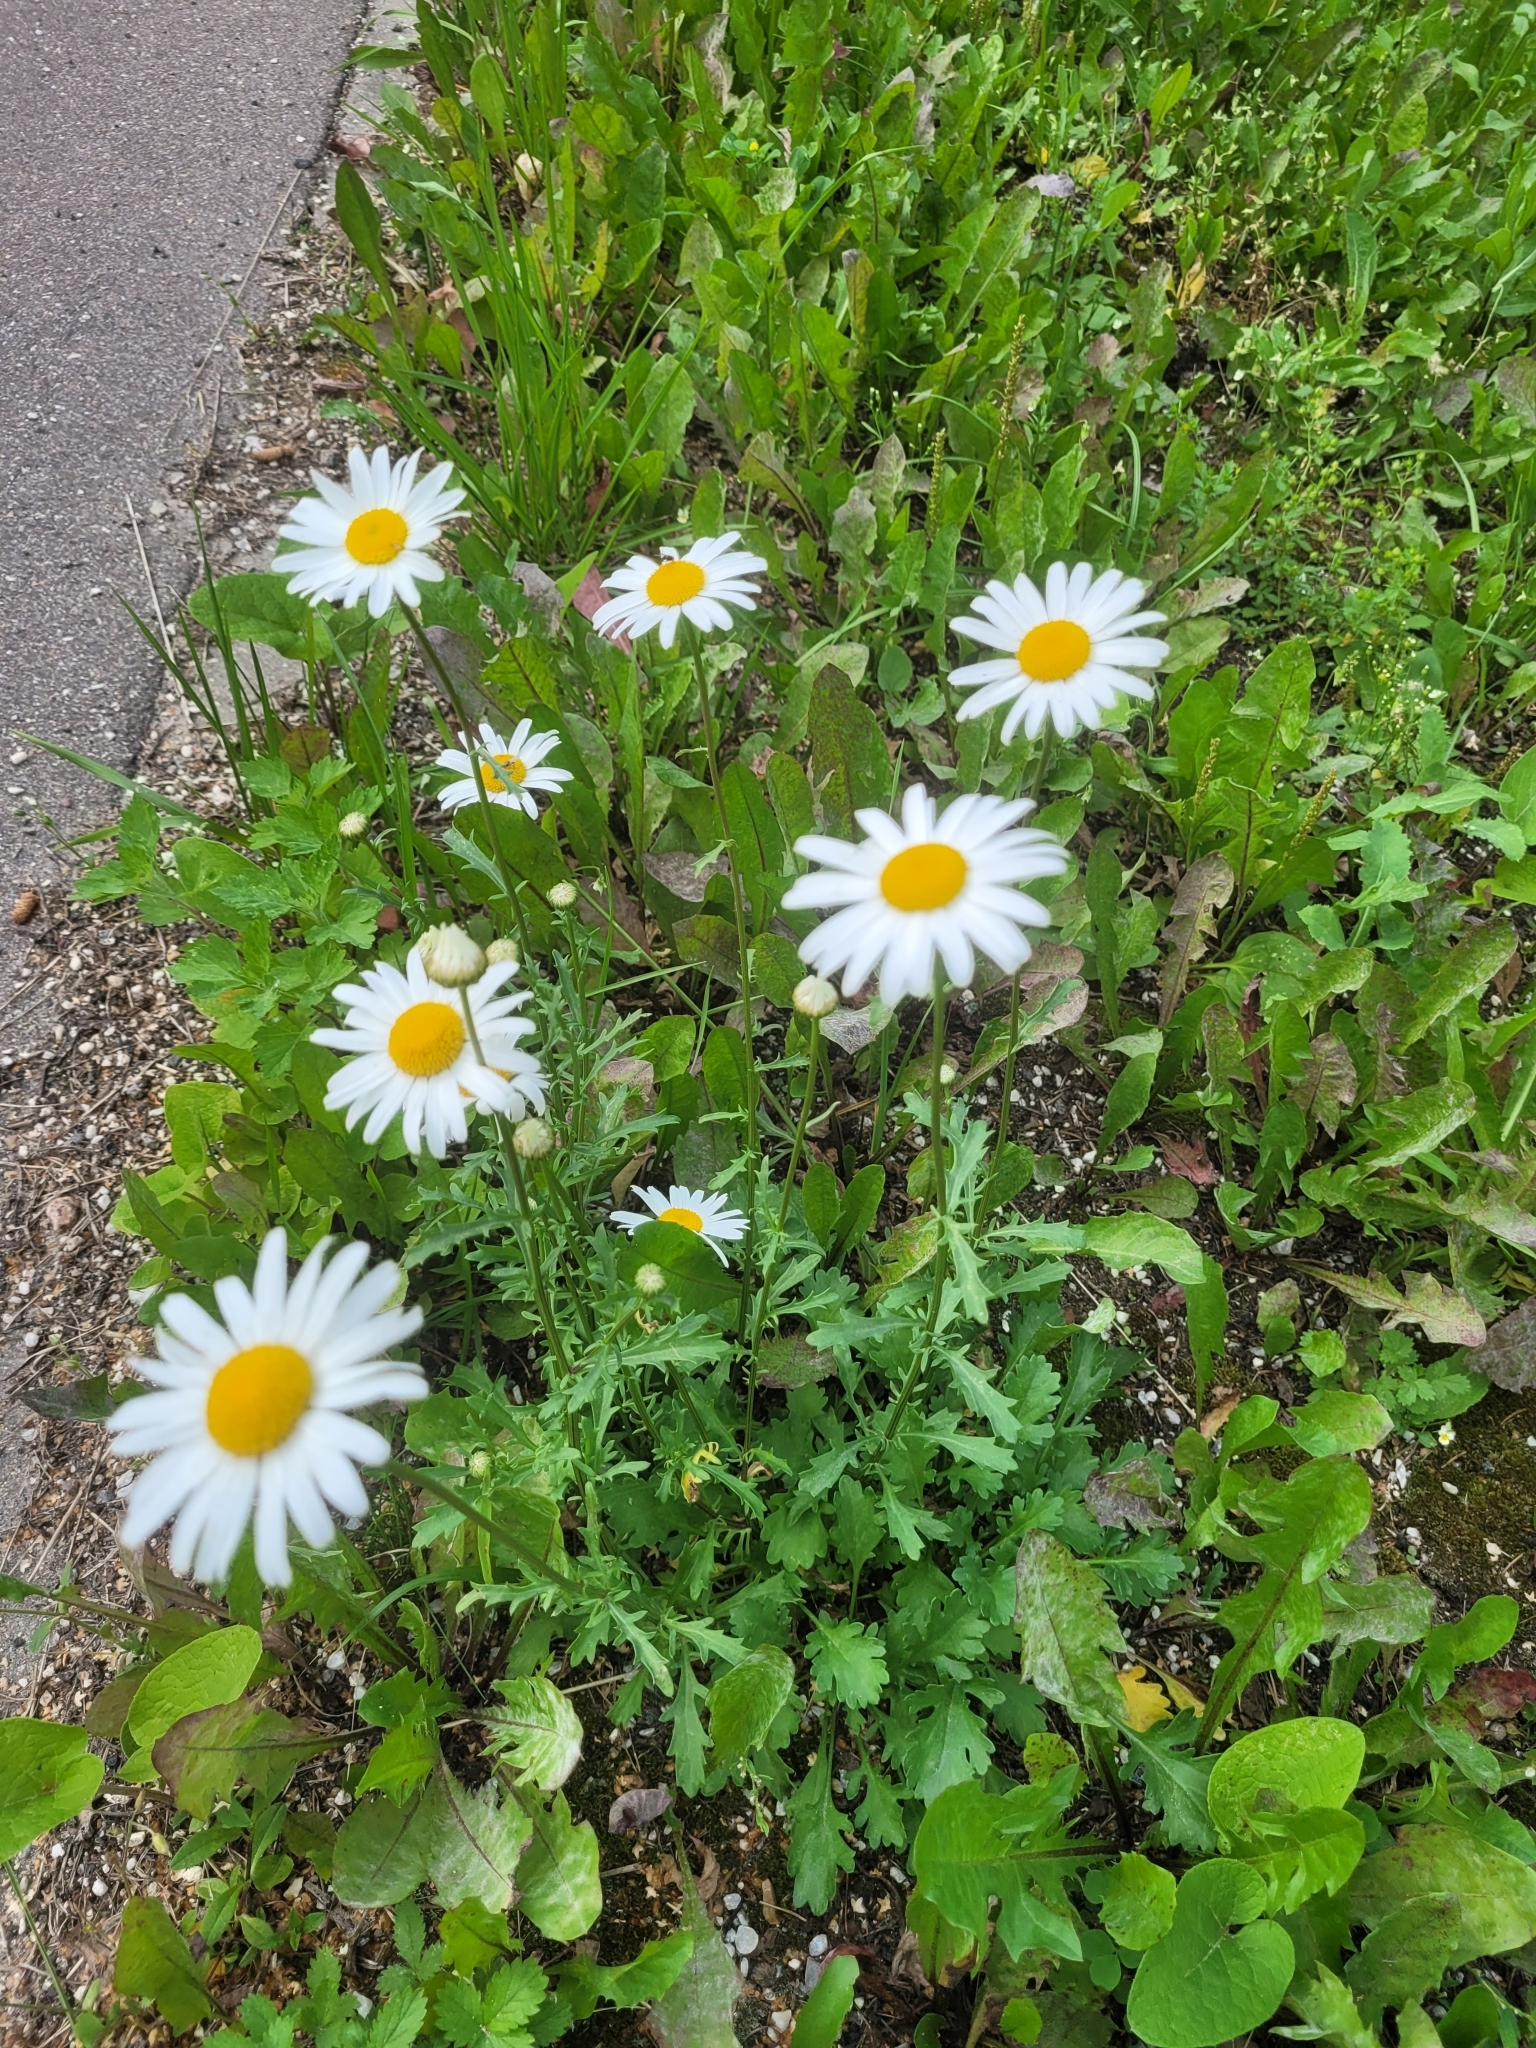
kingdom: Plantae
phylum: Tracheophyta
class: Magnoliopsida
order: Asterales
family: Asteraceae
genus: Leucanthemum
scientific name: Leucanthemum vulgare
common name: Oxeye daisy
